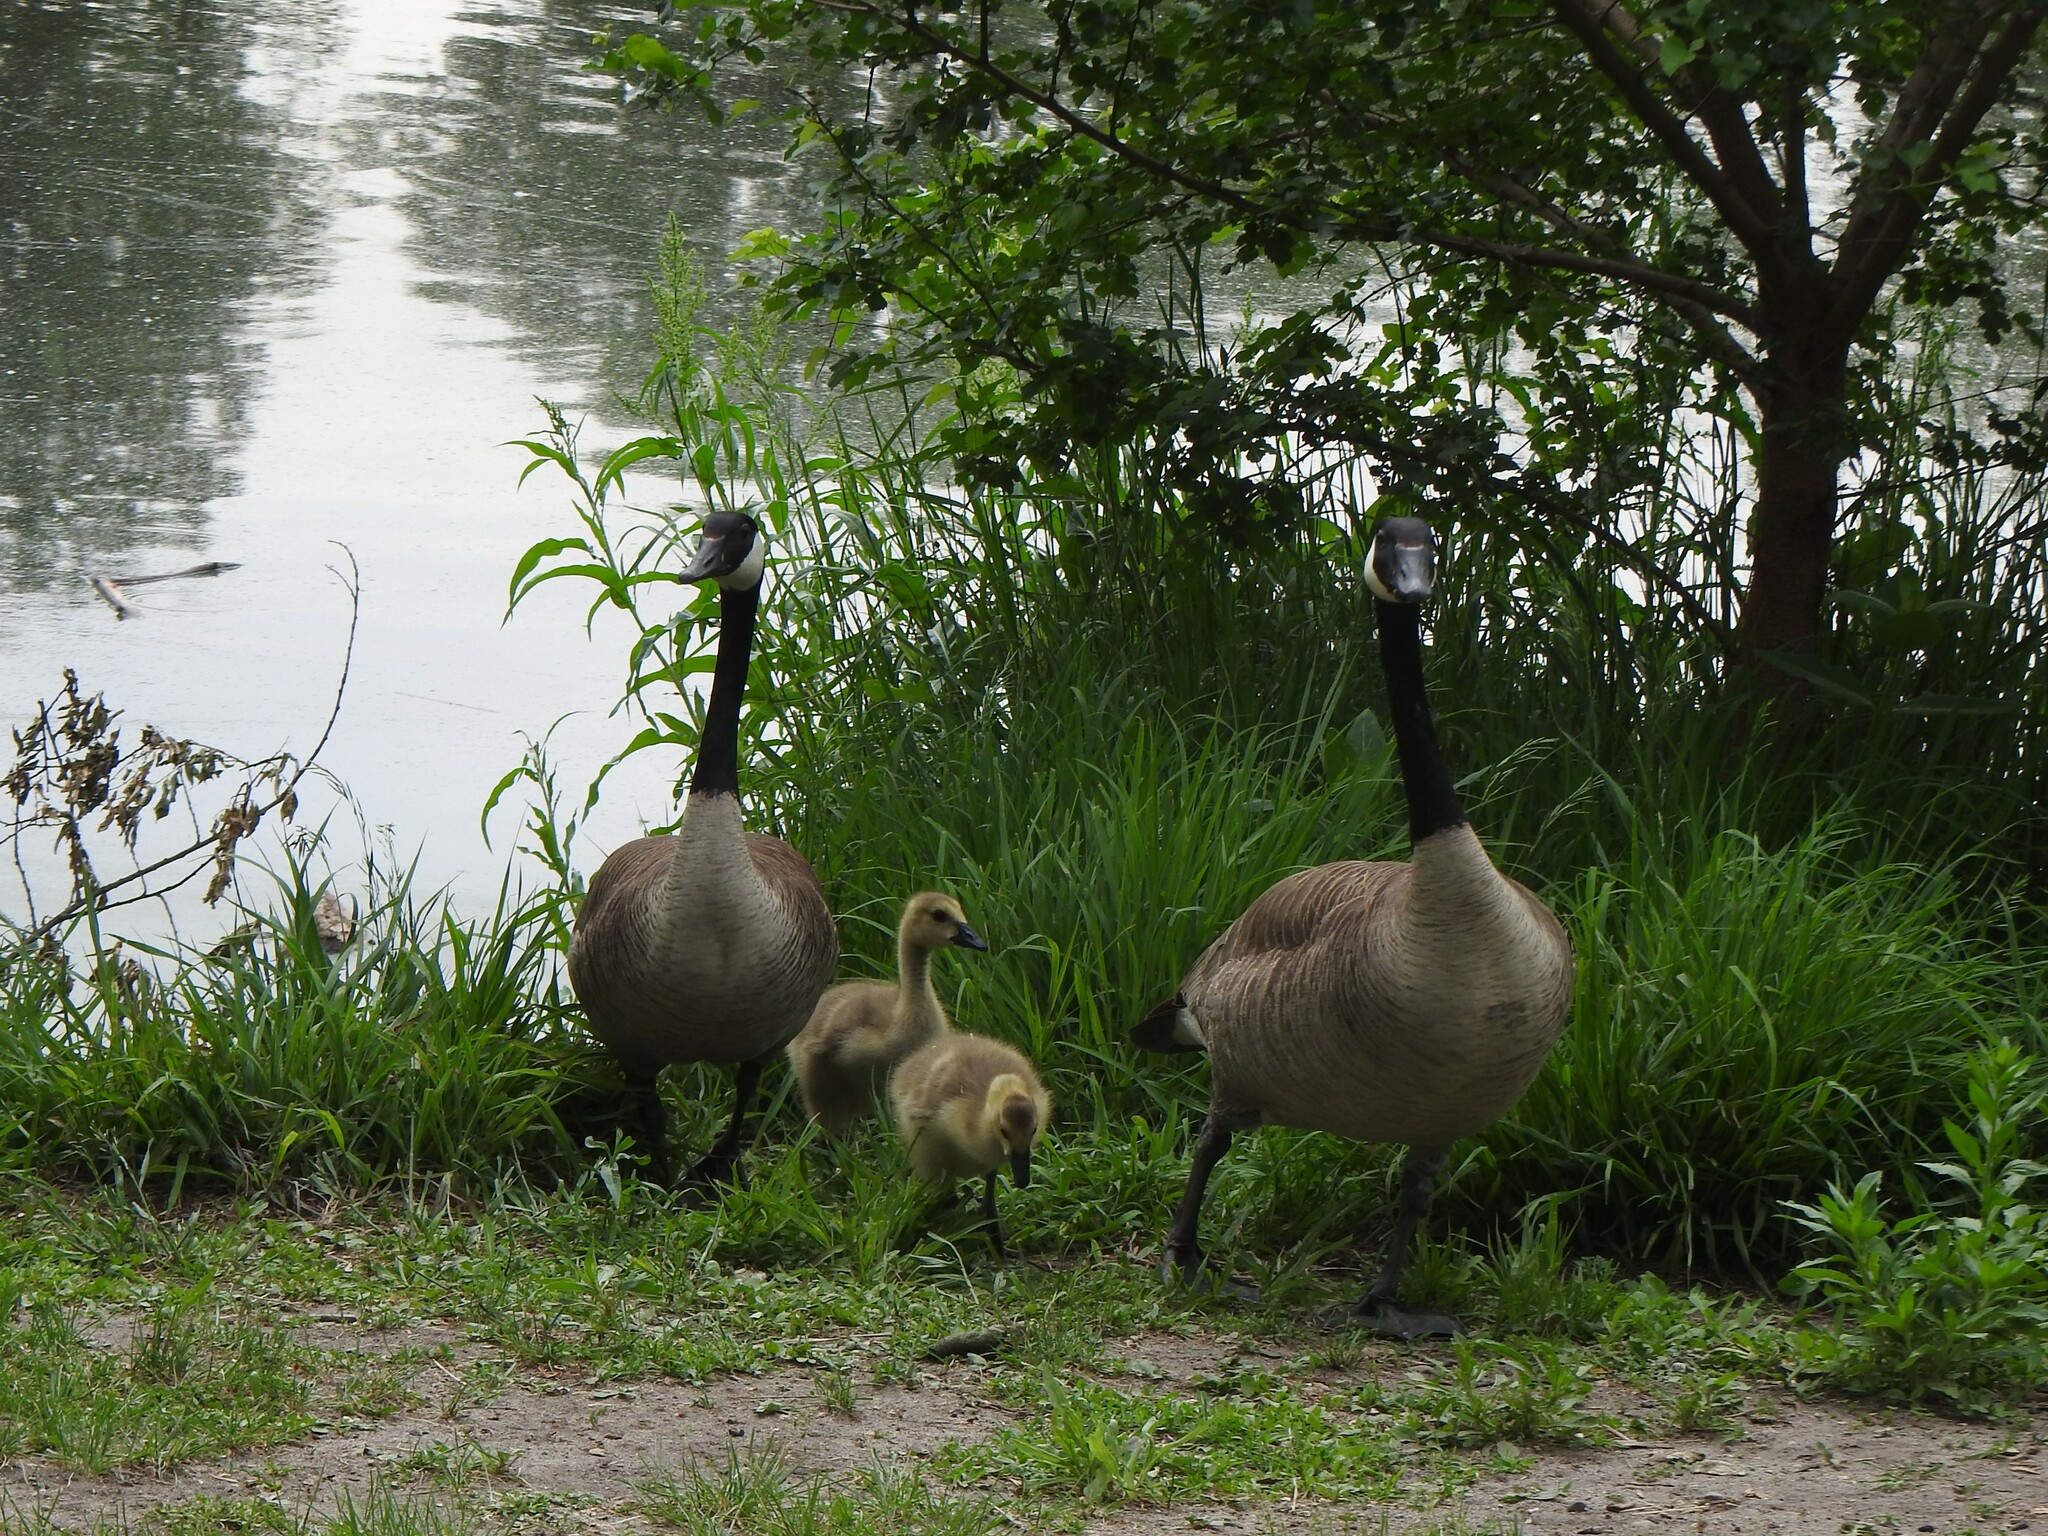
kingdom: Animalia
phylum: Chordata
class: Aves
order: Anseriformes
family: Anatidae
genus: Branta
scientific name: Branta canadensis
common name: Canada goose
